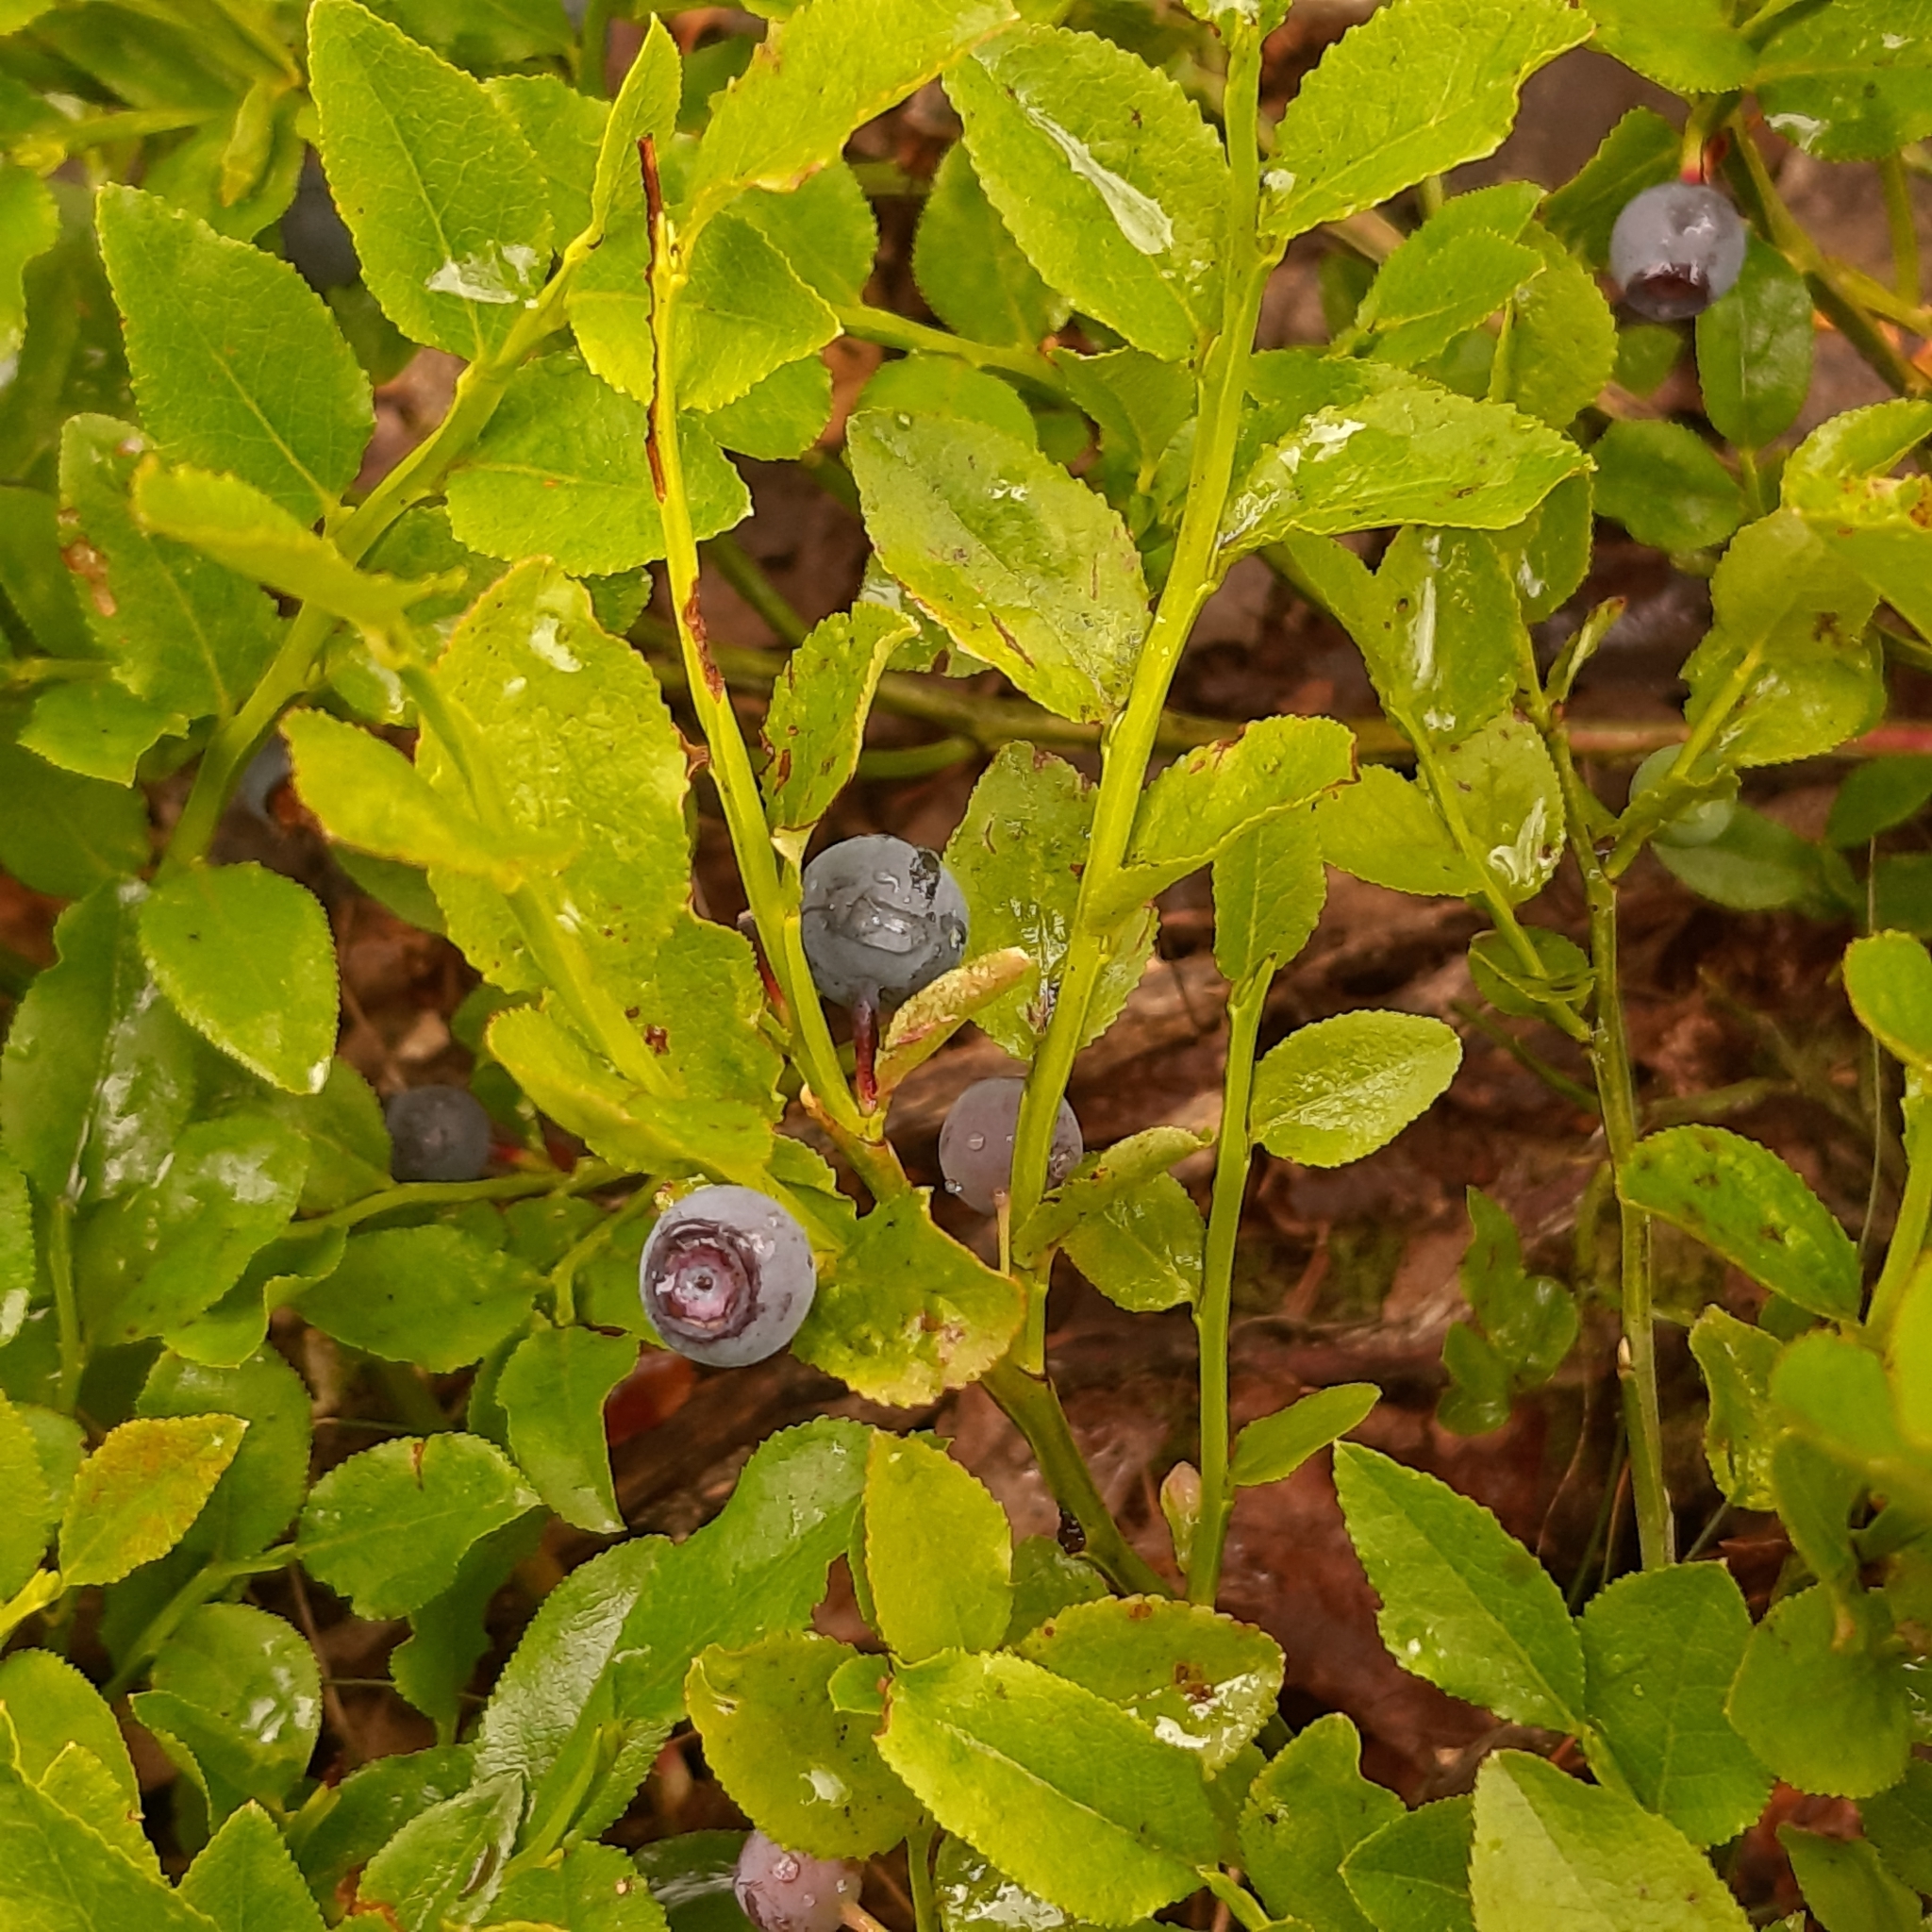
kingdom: Plantae
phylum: Tracheophyta
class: Magnoliopsida
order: Ericales
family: Ericaceae
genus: Vaccinium
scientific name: Vaccinium myrtillus
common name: Bilberry
